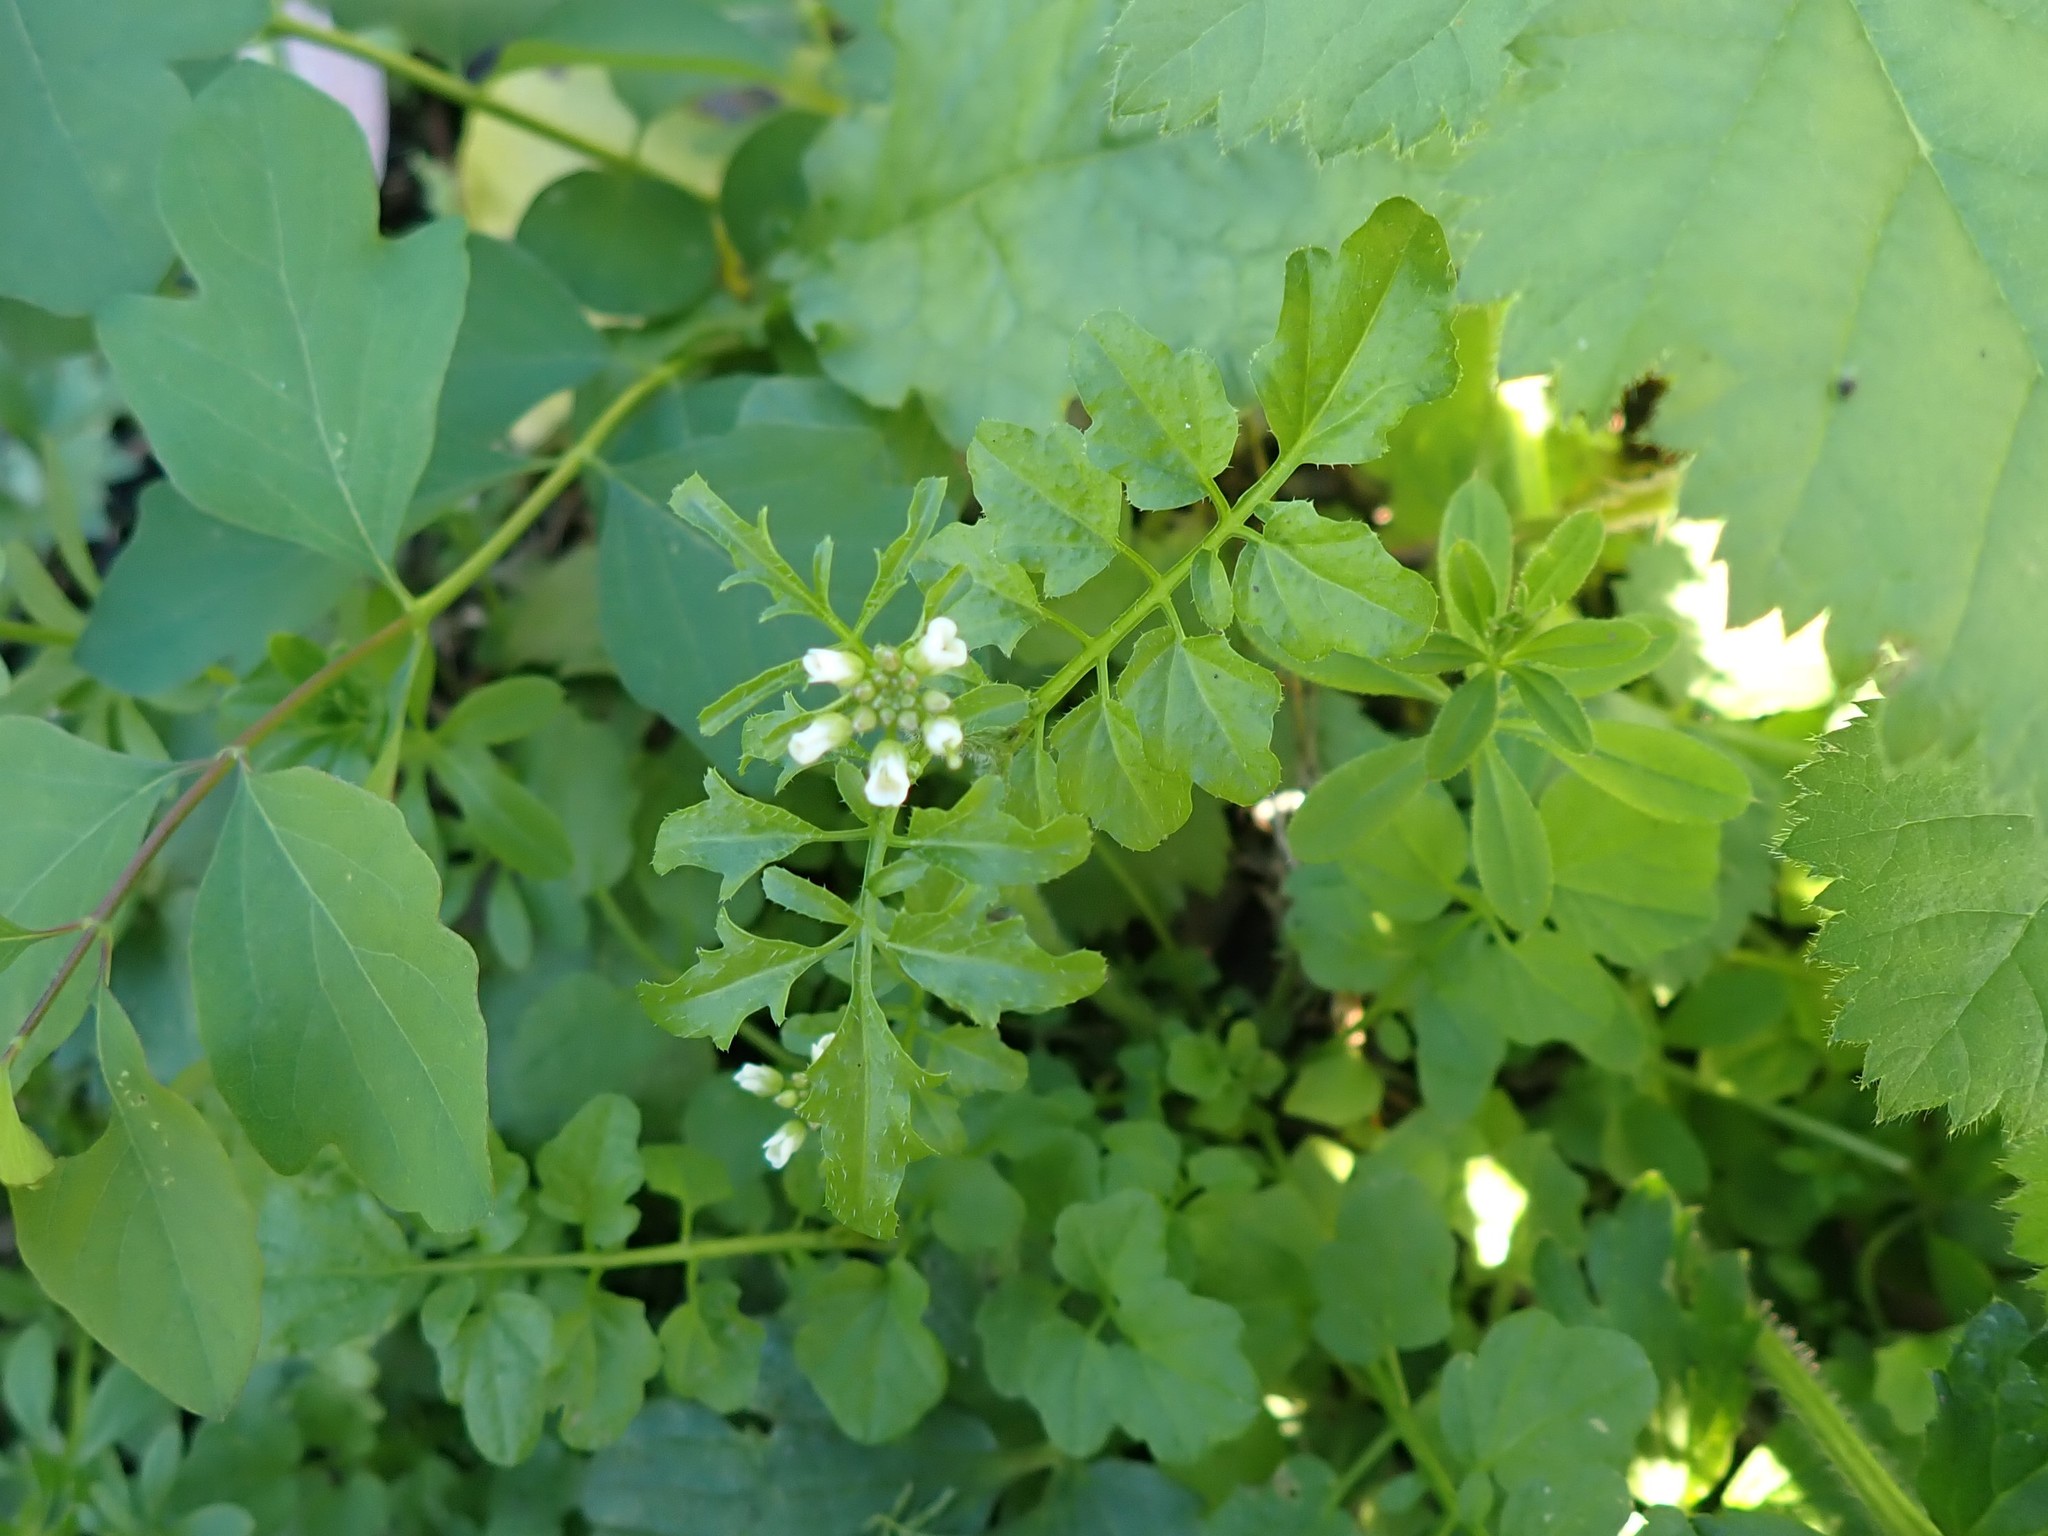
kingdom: Plantae
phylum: Tracheophyta
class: Magnoliopsida
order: Brassicales
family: Brassicaceae
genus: Cardamine
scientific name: Cardamine flexuosa
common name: Woodland bittercress
